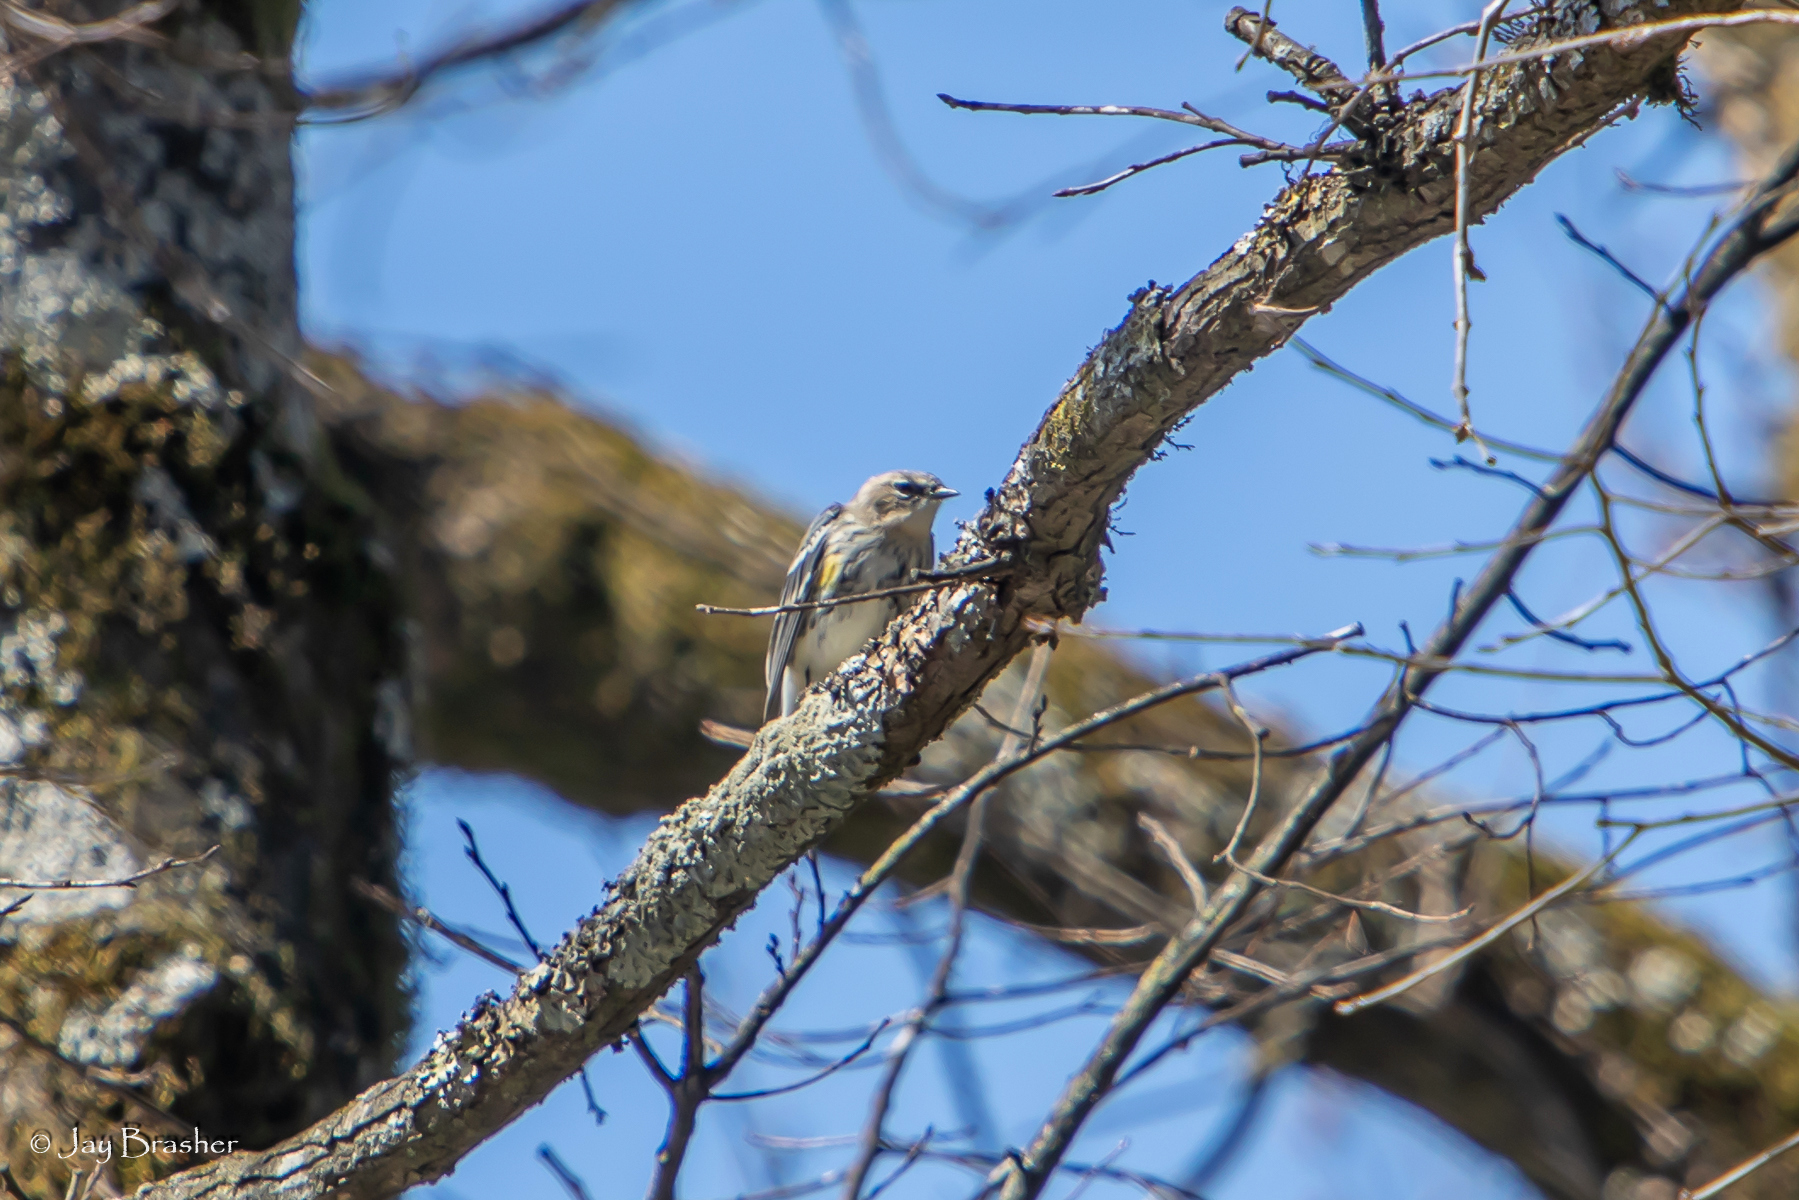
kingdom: Animalia
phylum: Chordata
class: Aves
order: Passeriformes
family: Parulidae
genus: Setophaga
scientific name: Setophaga coronata
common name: Myrtle warbler
